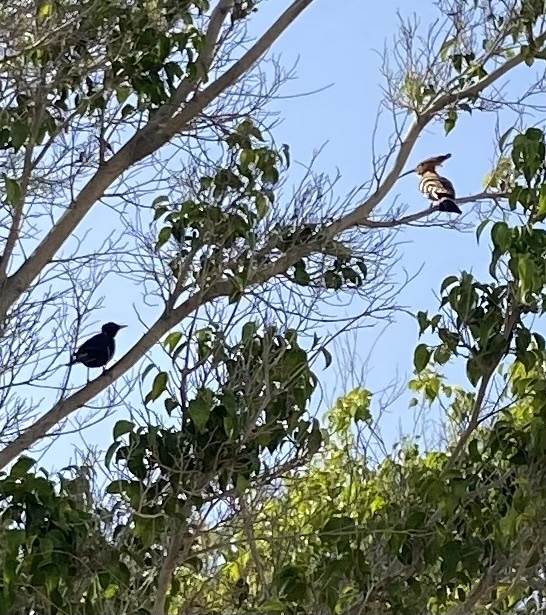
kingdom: Animalia
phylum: Chordata
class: Aves
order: Passeriformes
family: Turdidae
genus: Turdus
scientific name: Turdus merula
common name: Common blackbird
